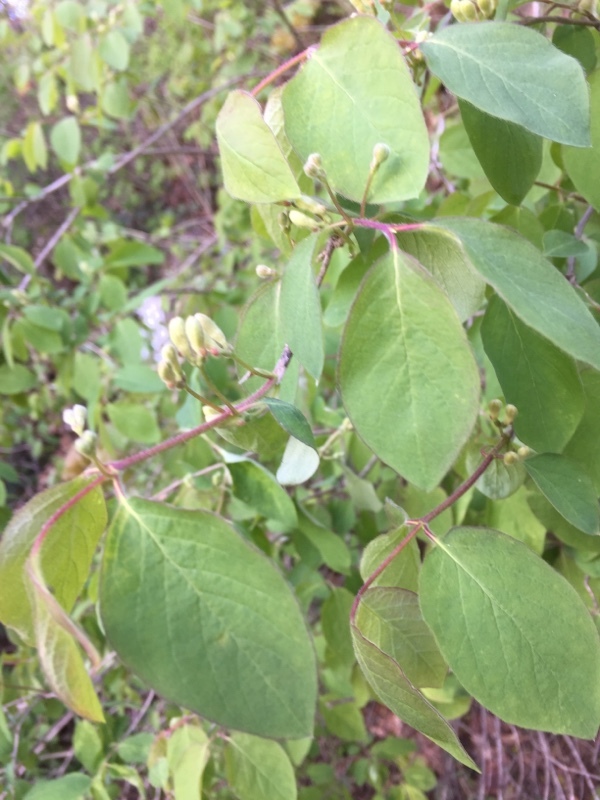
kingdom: Plantae
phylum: Tracheophyta
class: Magnoliopsida
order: Dipsacales
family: Caprifoliaceae
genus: Lonicera
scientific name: Lonicera xylosteum
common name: Fly honeysuckle
